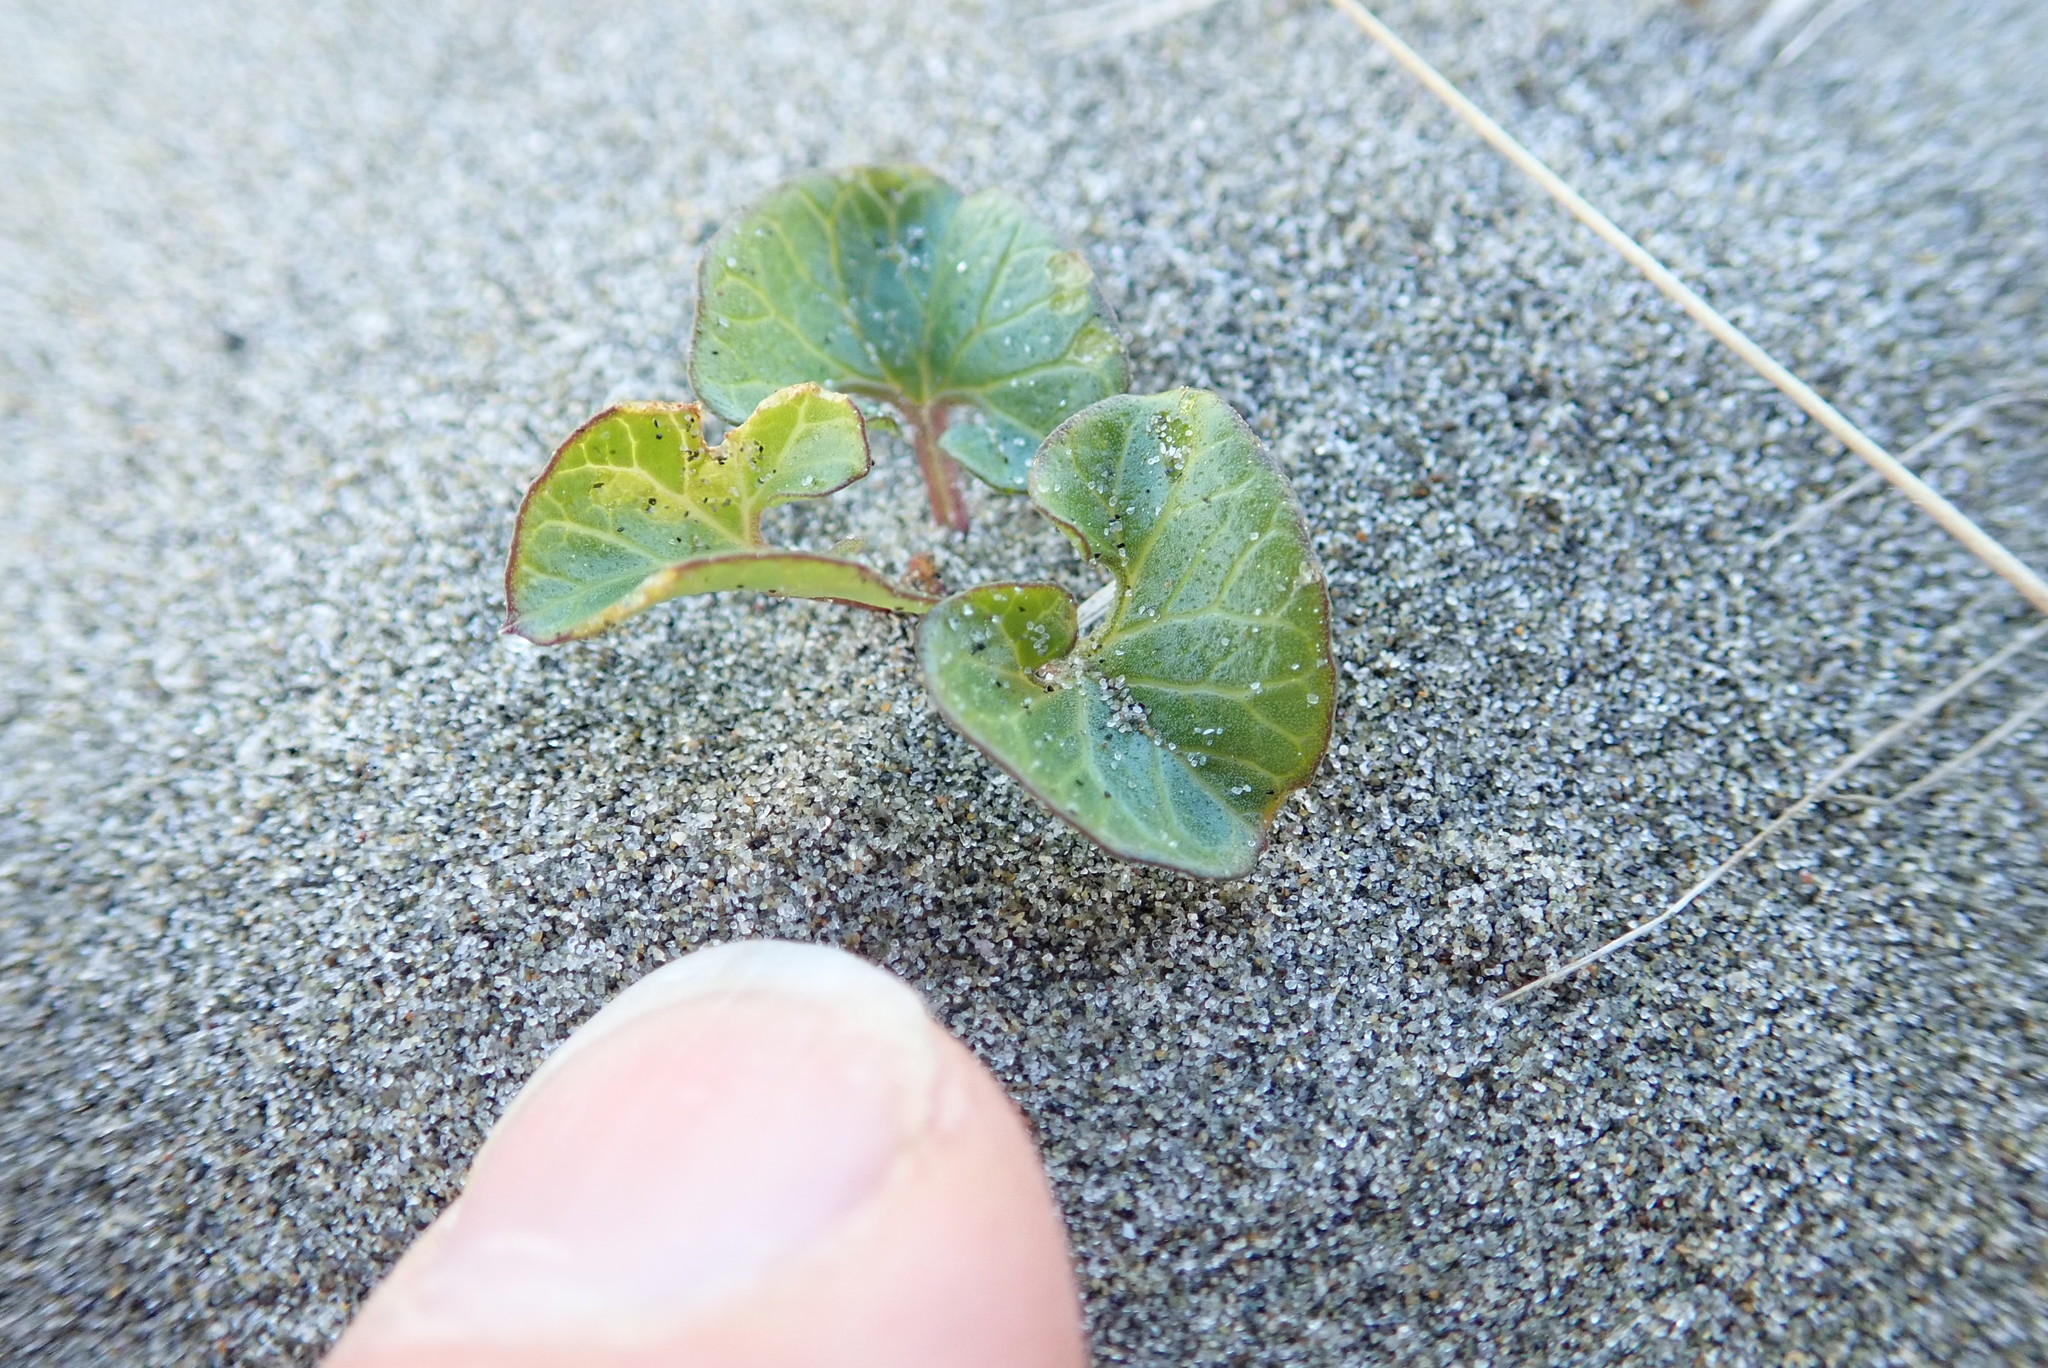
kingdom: Plantae
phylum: Tracheophyta
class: Magnoliopsida
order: Solanales
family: Convolvulaceae
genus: Calystegia
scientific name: Calystegia soldanella
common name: Sea bindweed
